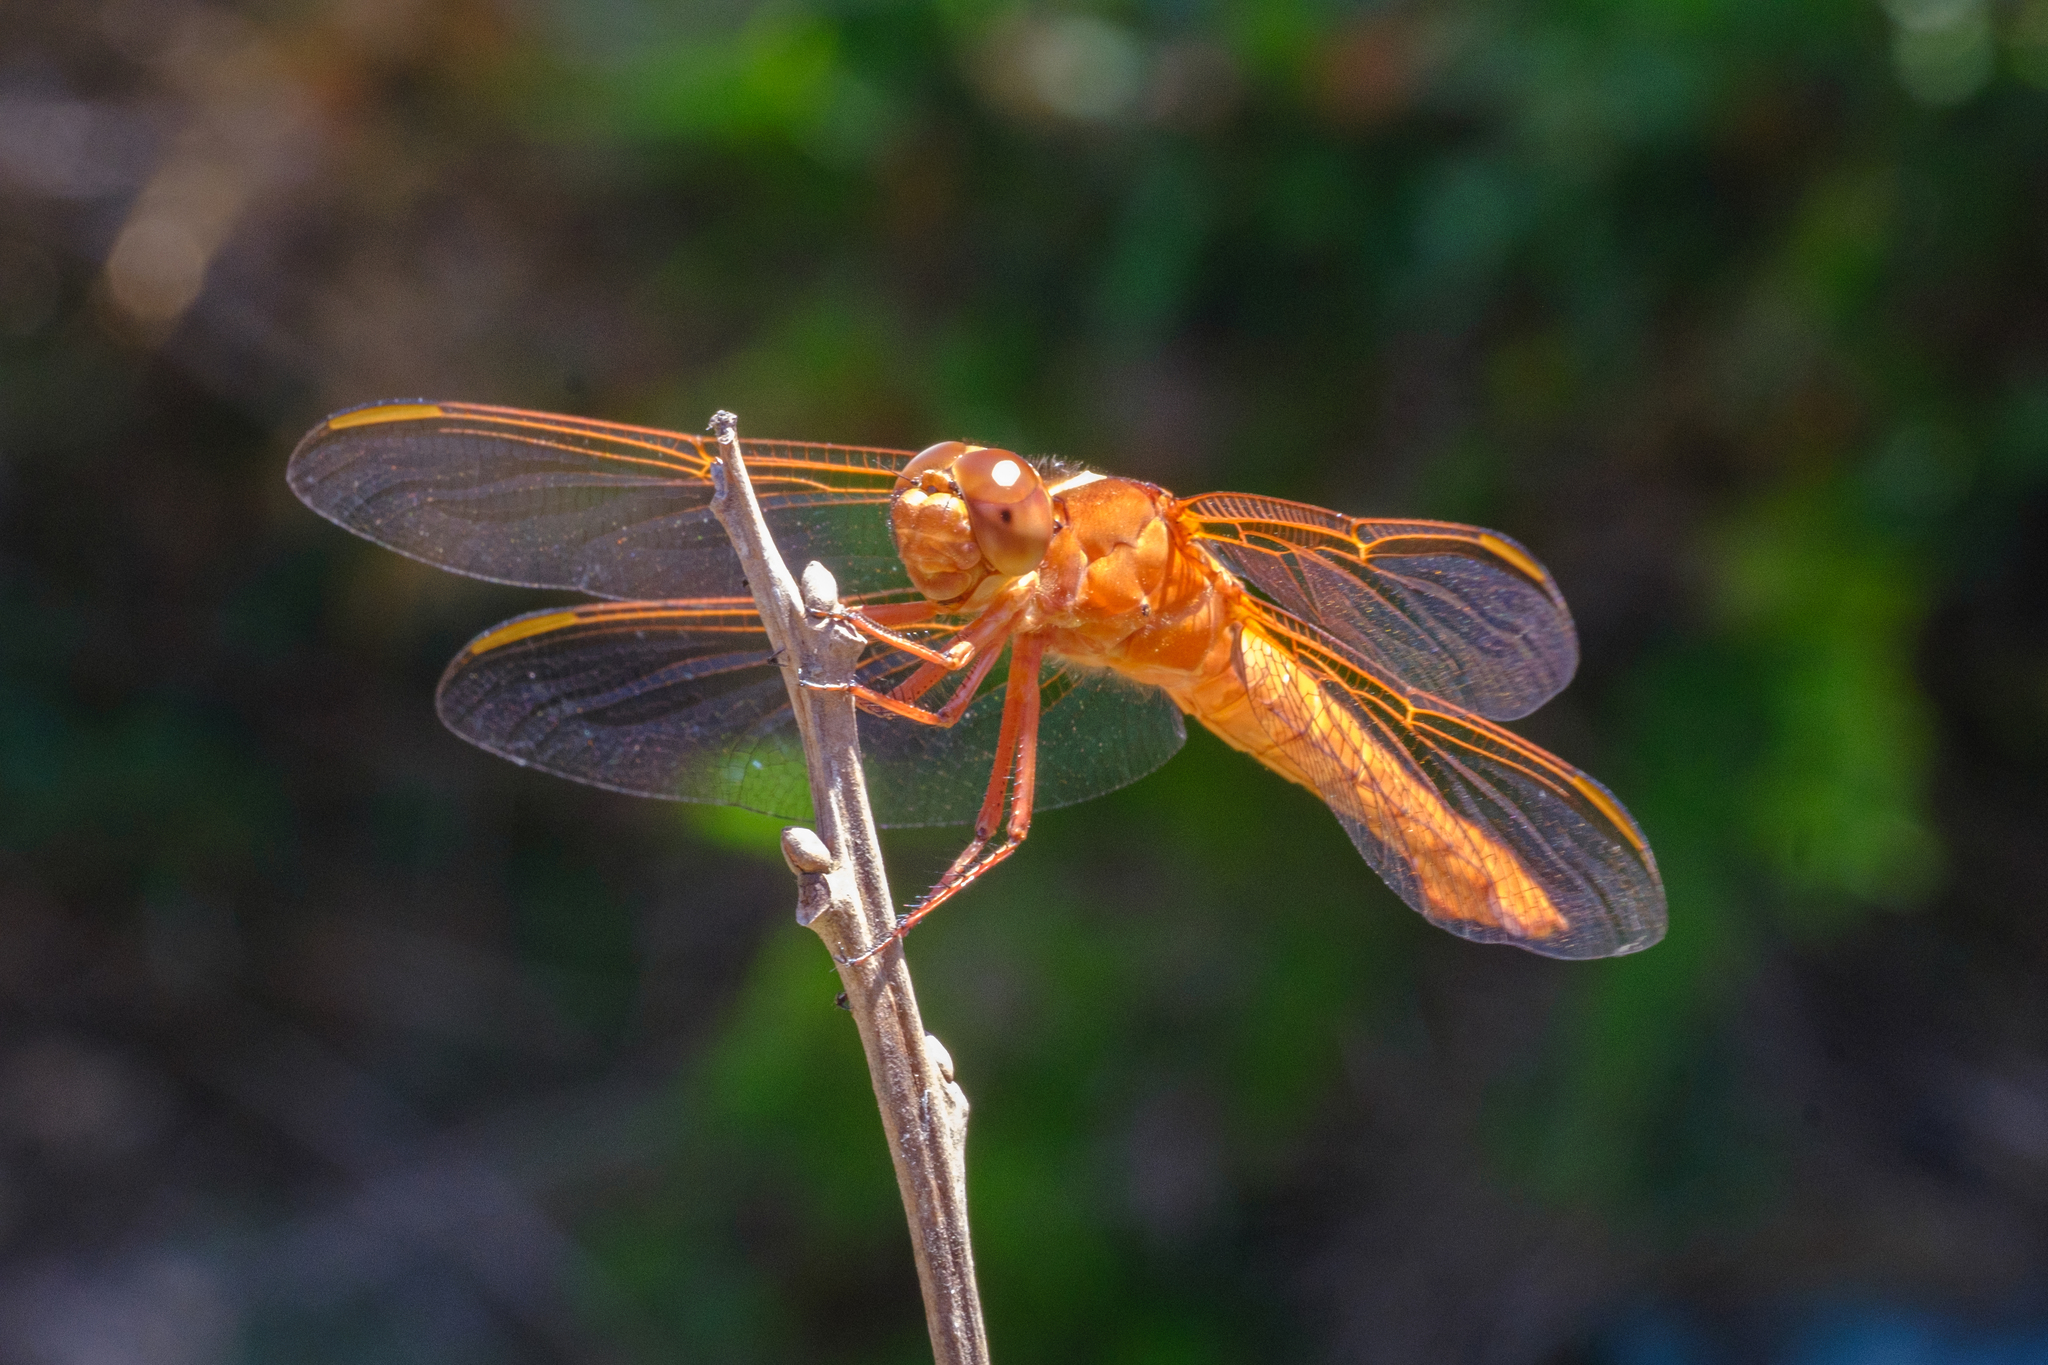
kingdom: Animalia
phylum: Arthropoda
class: Insecta
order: Odonata
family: Libellulidae
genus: Libellula
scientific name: Libellula croceipennis
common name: Neon skimmer
